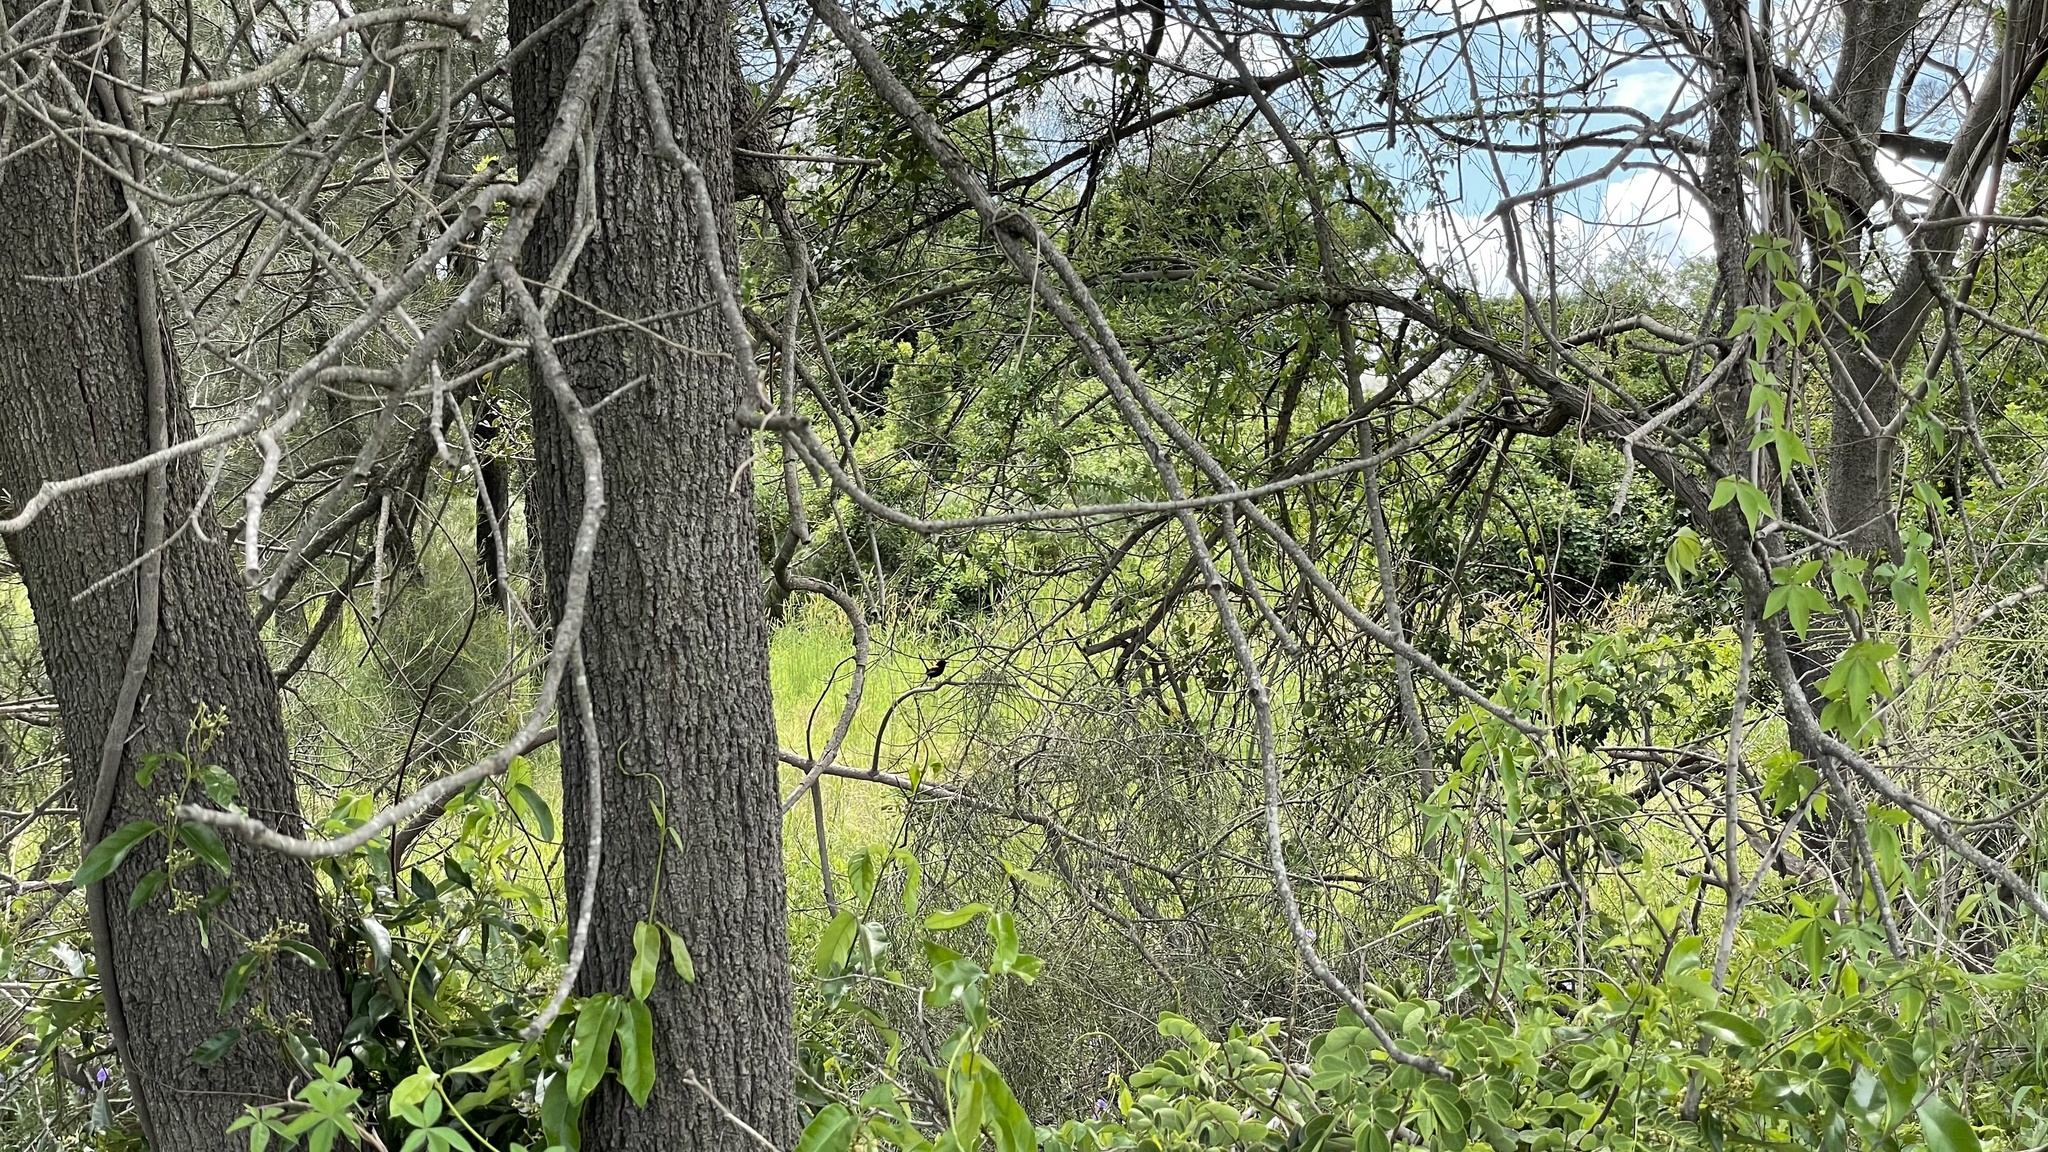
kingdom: Animalia
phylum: Chordata
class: Aves
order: Passeriformes
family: Maluridae
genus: Malurus
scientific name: Malurus melanocephalus
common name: Red-backed fairywren
